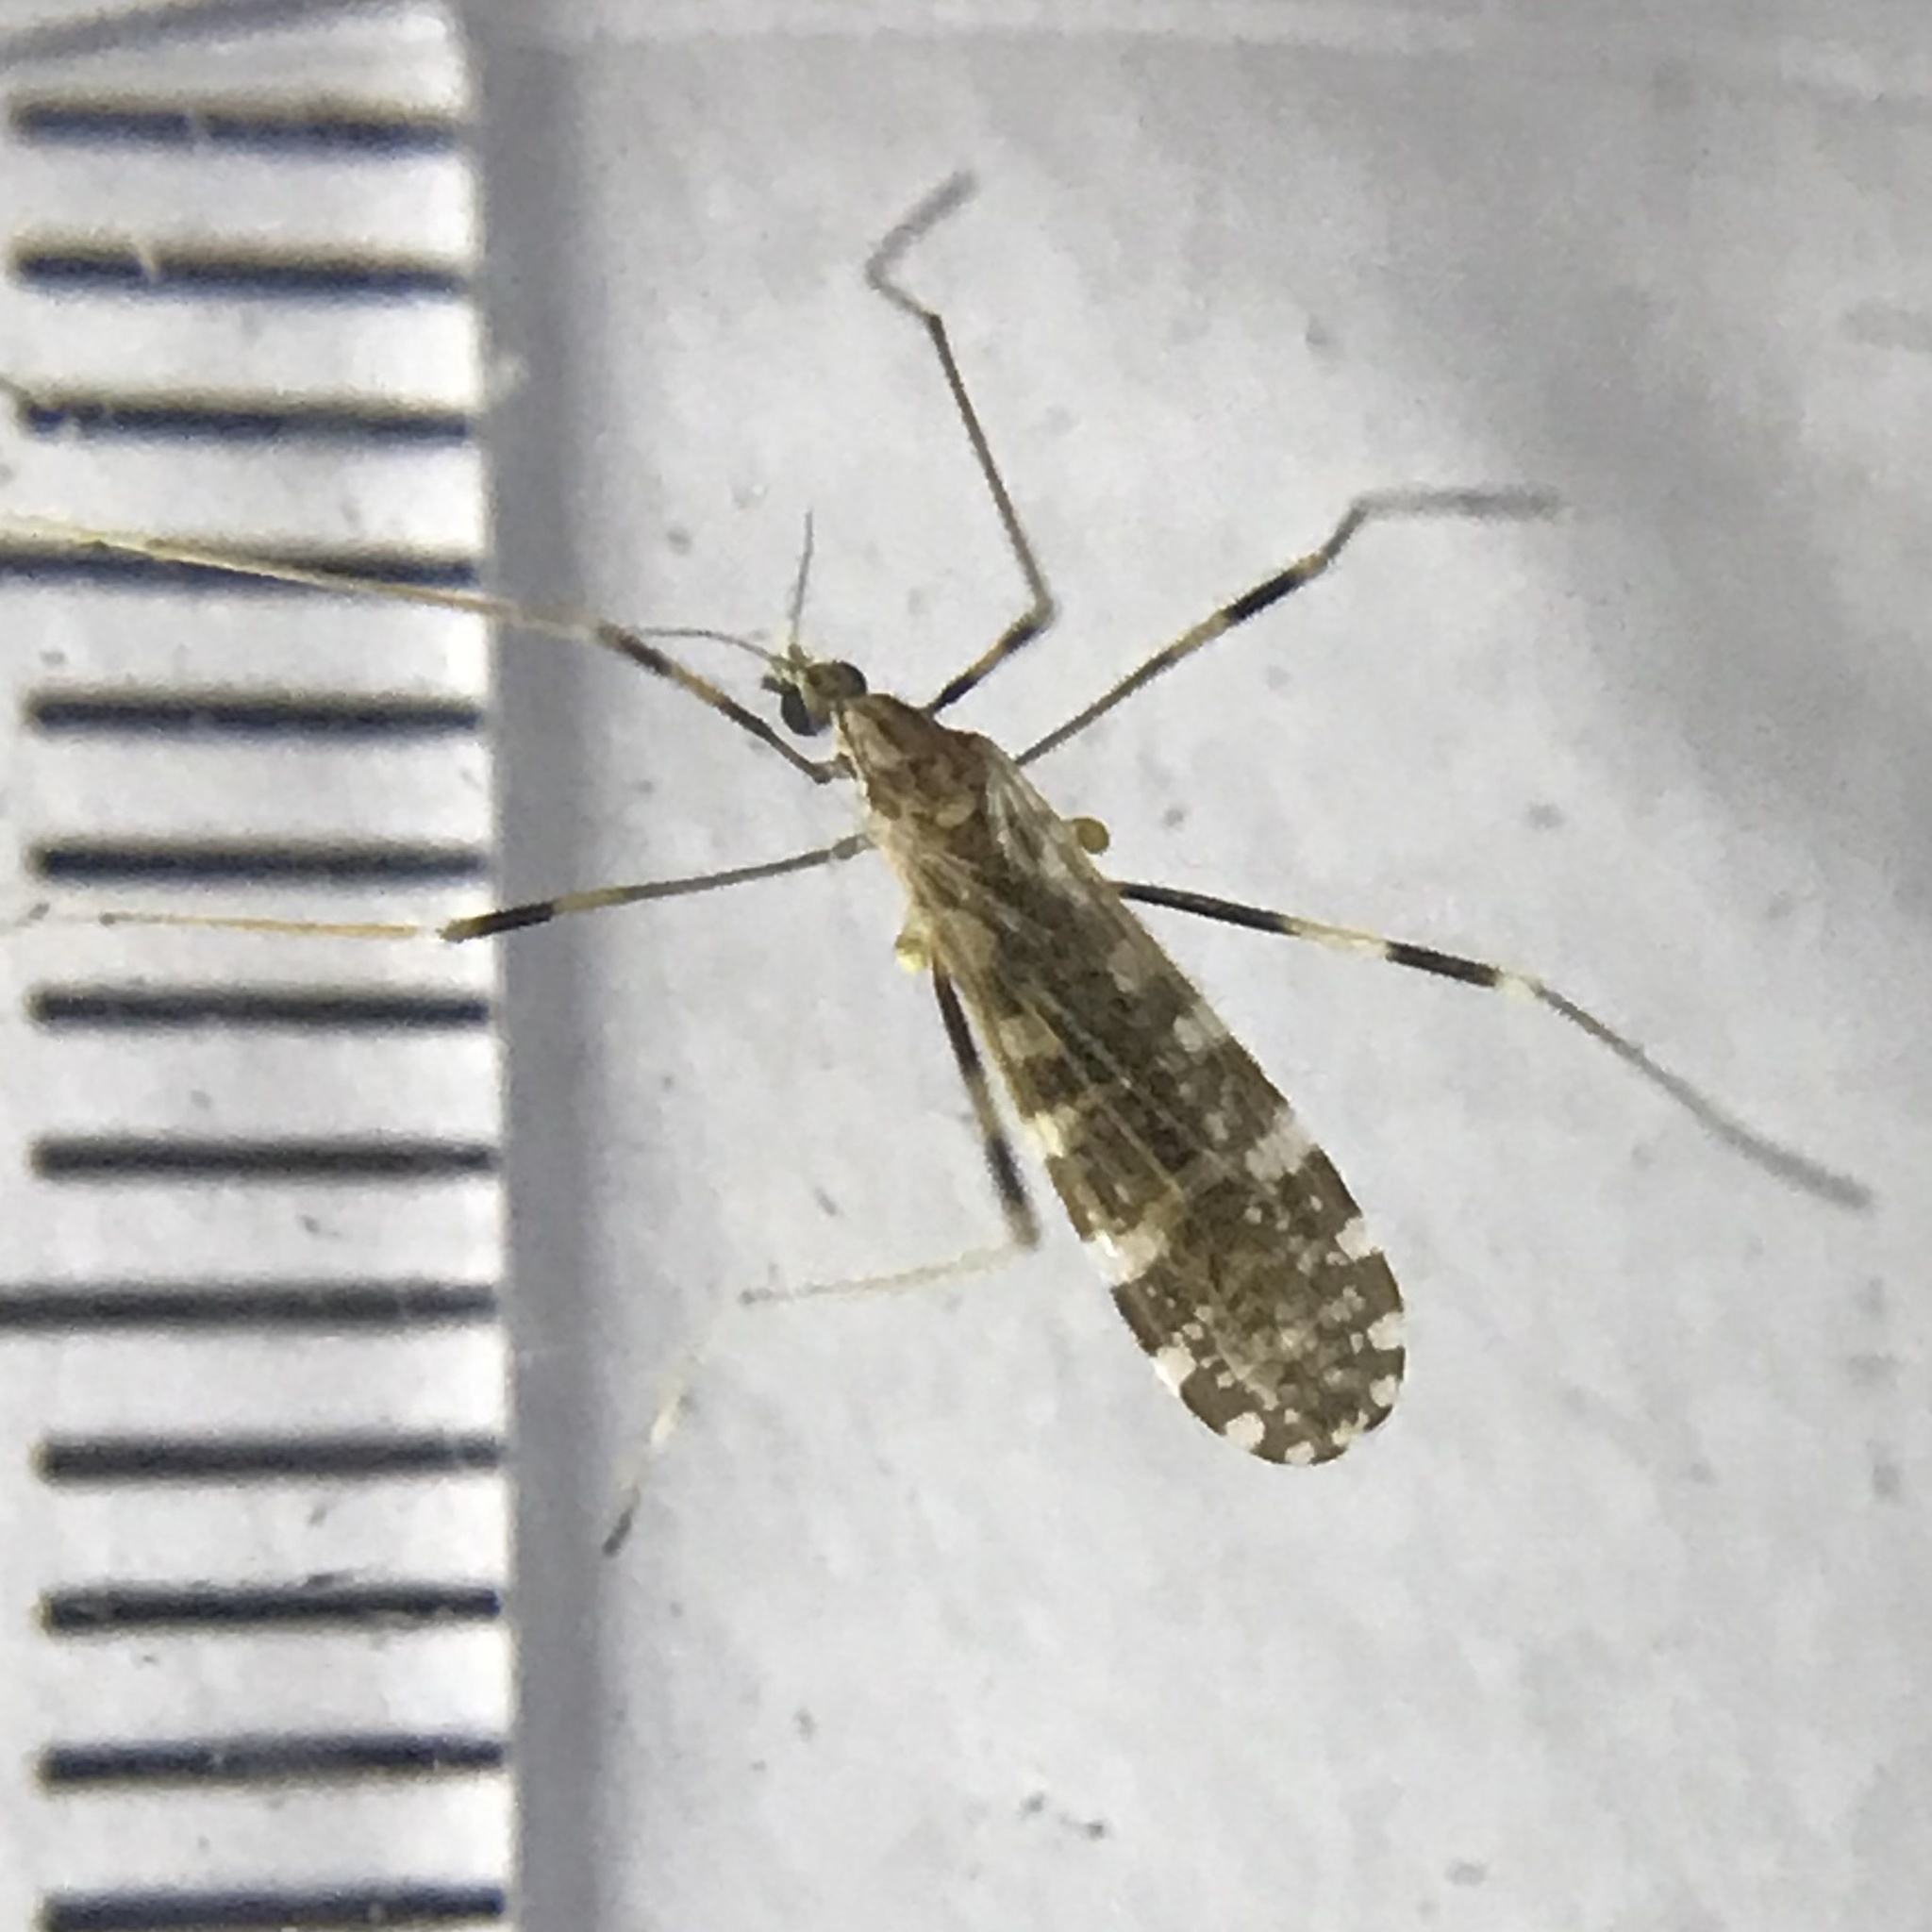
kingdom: Animalia
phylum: Arthropoda
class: Insecta
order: Diptera
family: Limoniidae
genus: Erioptera
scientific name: Erioptera caliptera
